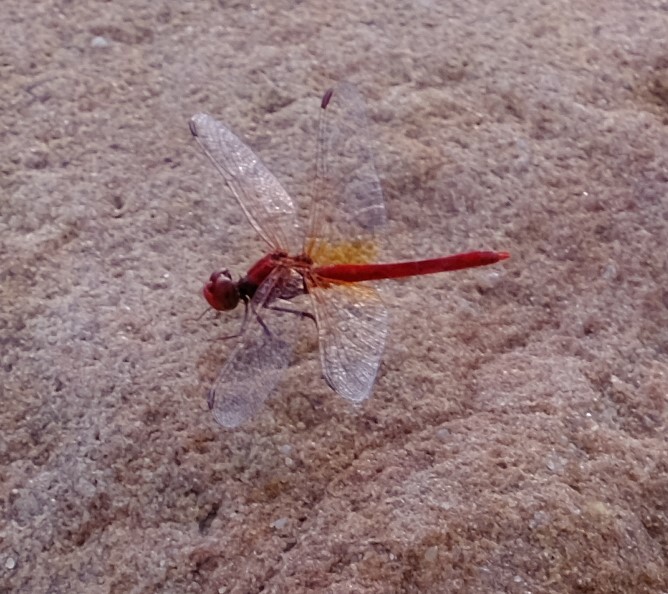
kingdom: Animalia
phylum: Arthropoda
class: Insecta
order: Odonata
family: Libellulidae
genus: Diplacodes
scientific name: Diplacodes haematodes
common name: Scarlet percher
